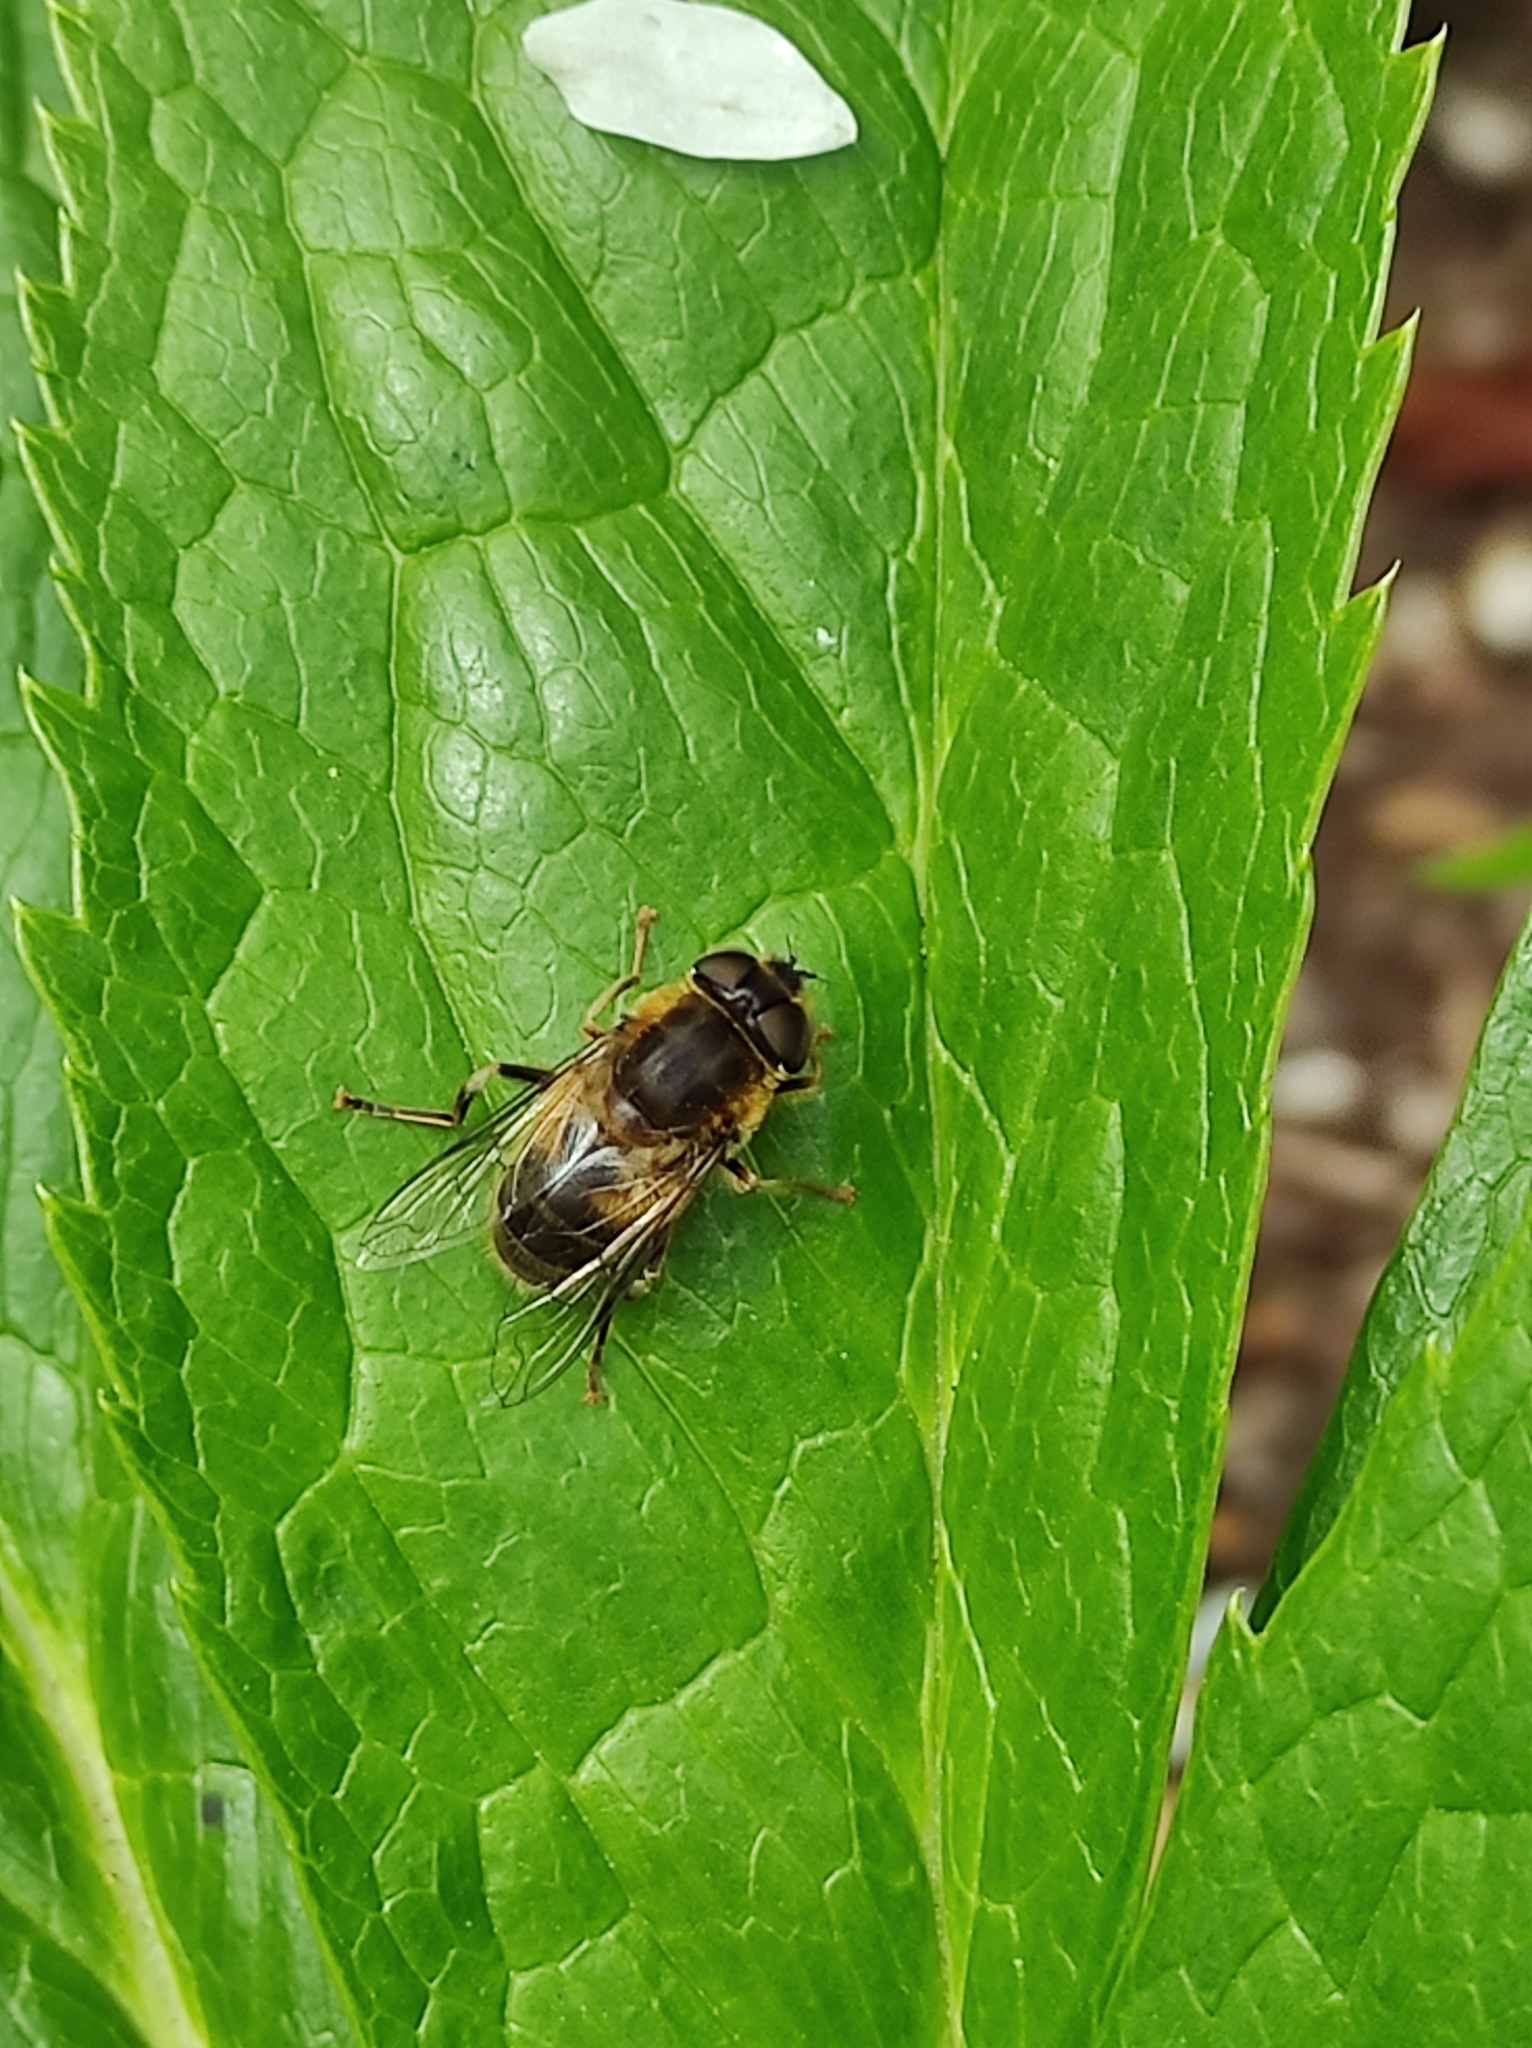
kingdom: Animalia
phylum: Arthropoda
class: Insecta
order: Diptera
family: Syrphidae
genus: Eristalis
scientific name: Eristalis pertinax
